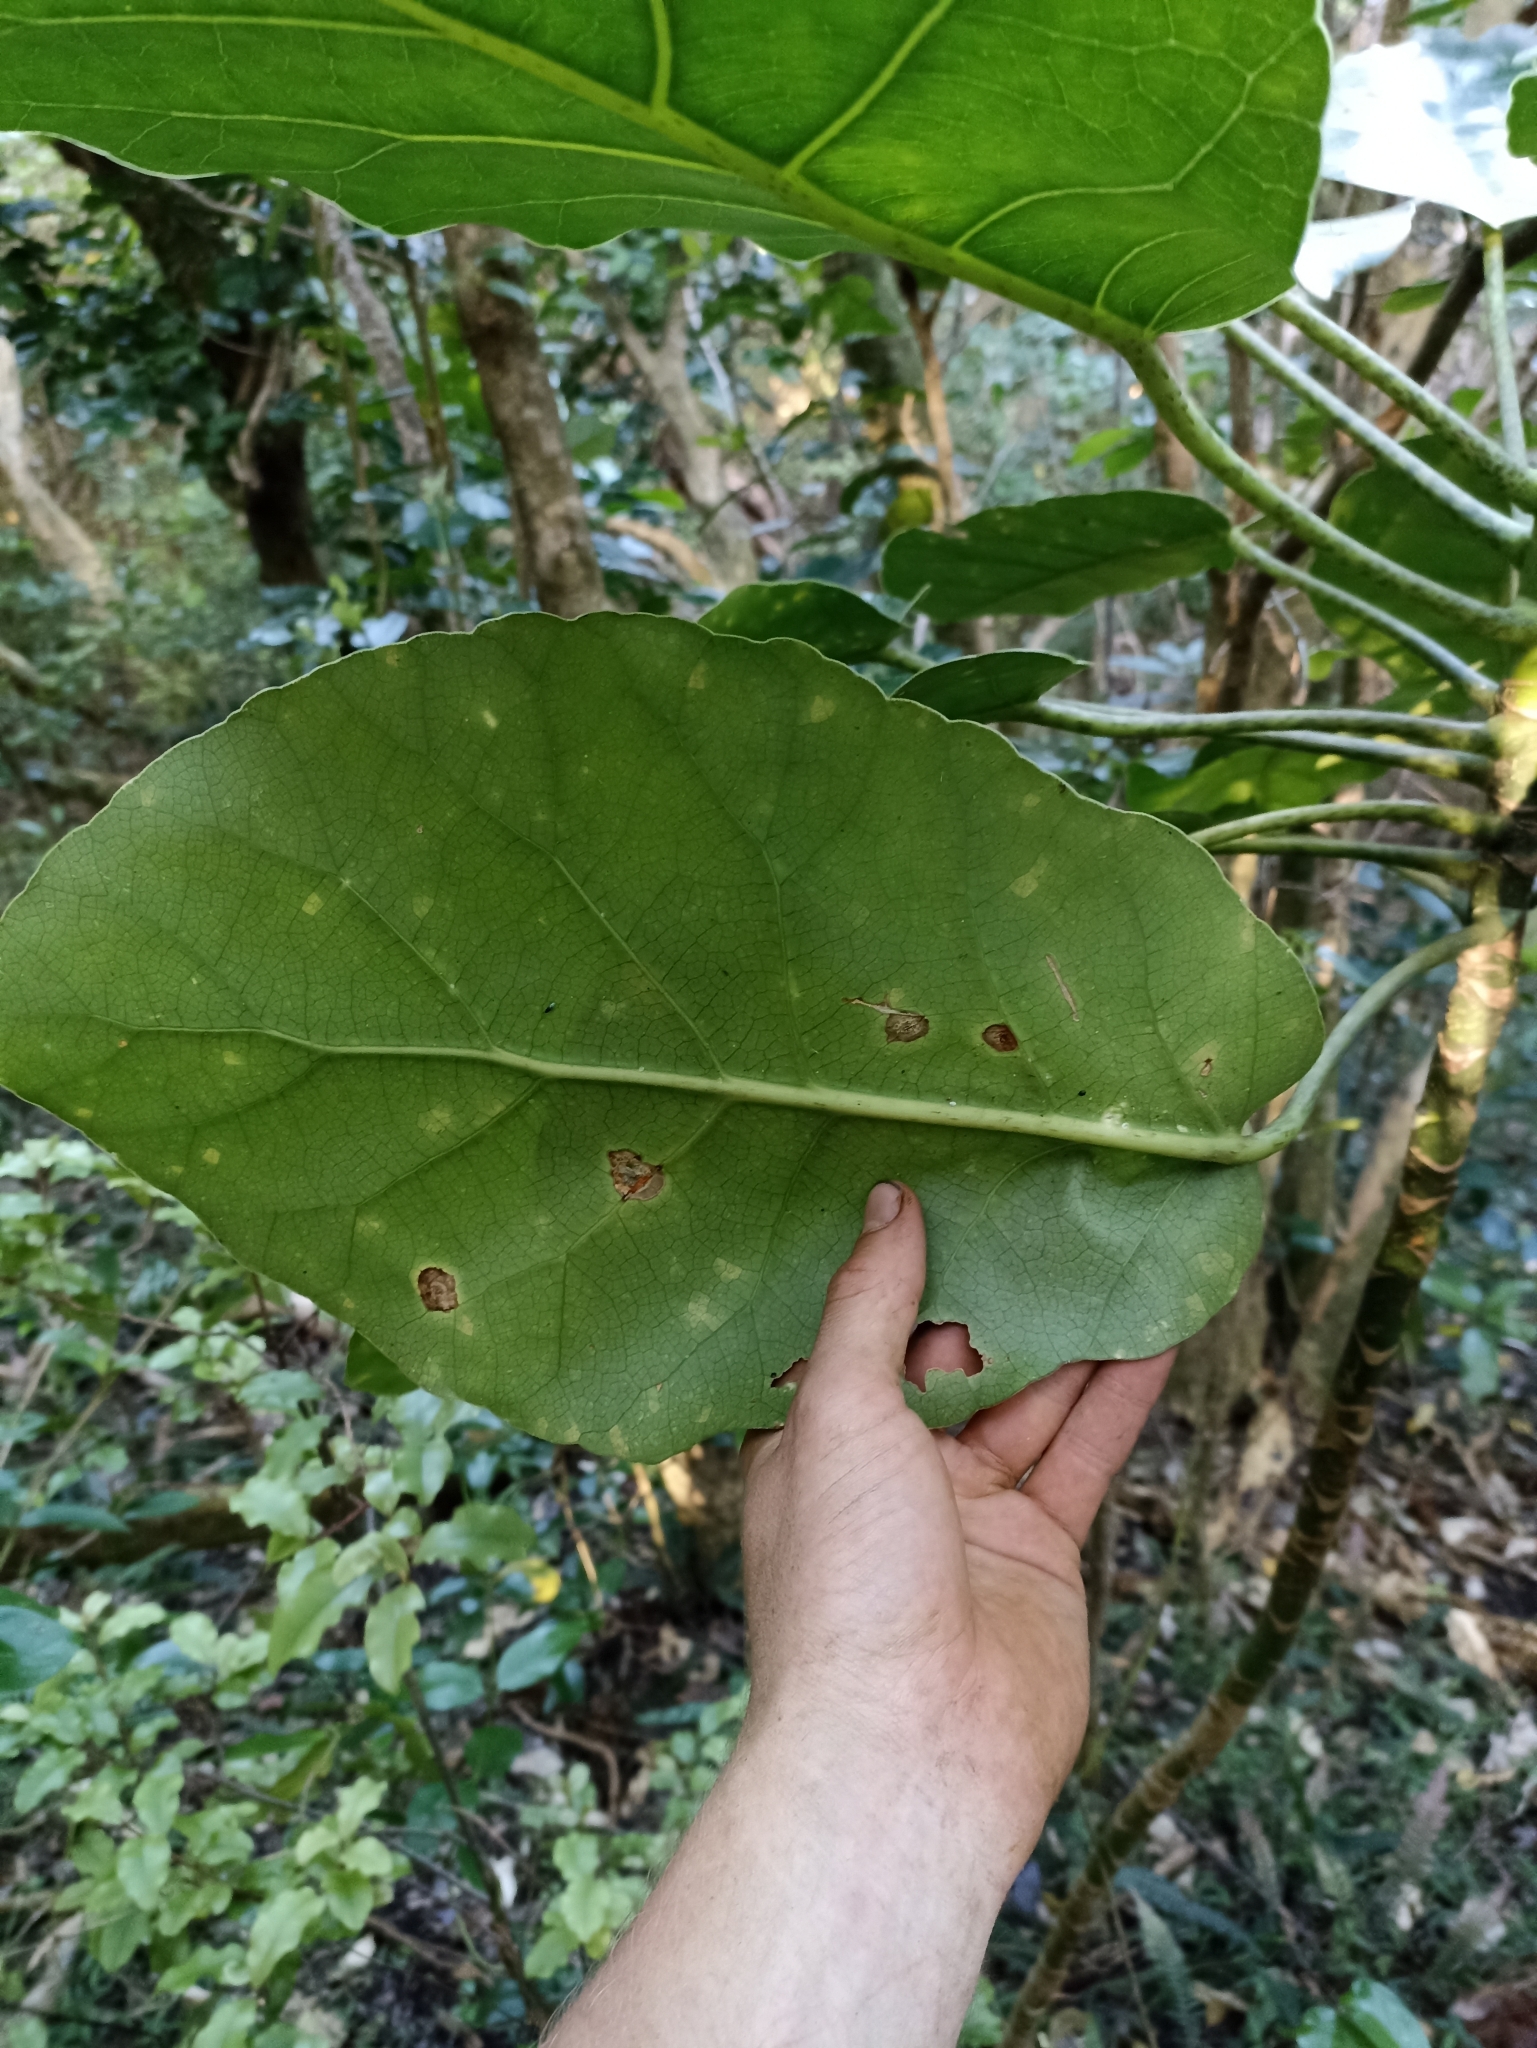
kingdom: Plantae
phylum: Tracheophyta
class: Magnoliopsida
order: Apiales
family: Araliaceae
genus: Meryta
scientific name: Meryta sinclairii
